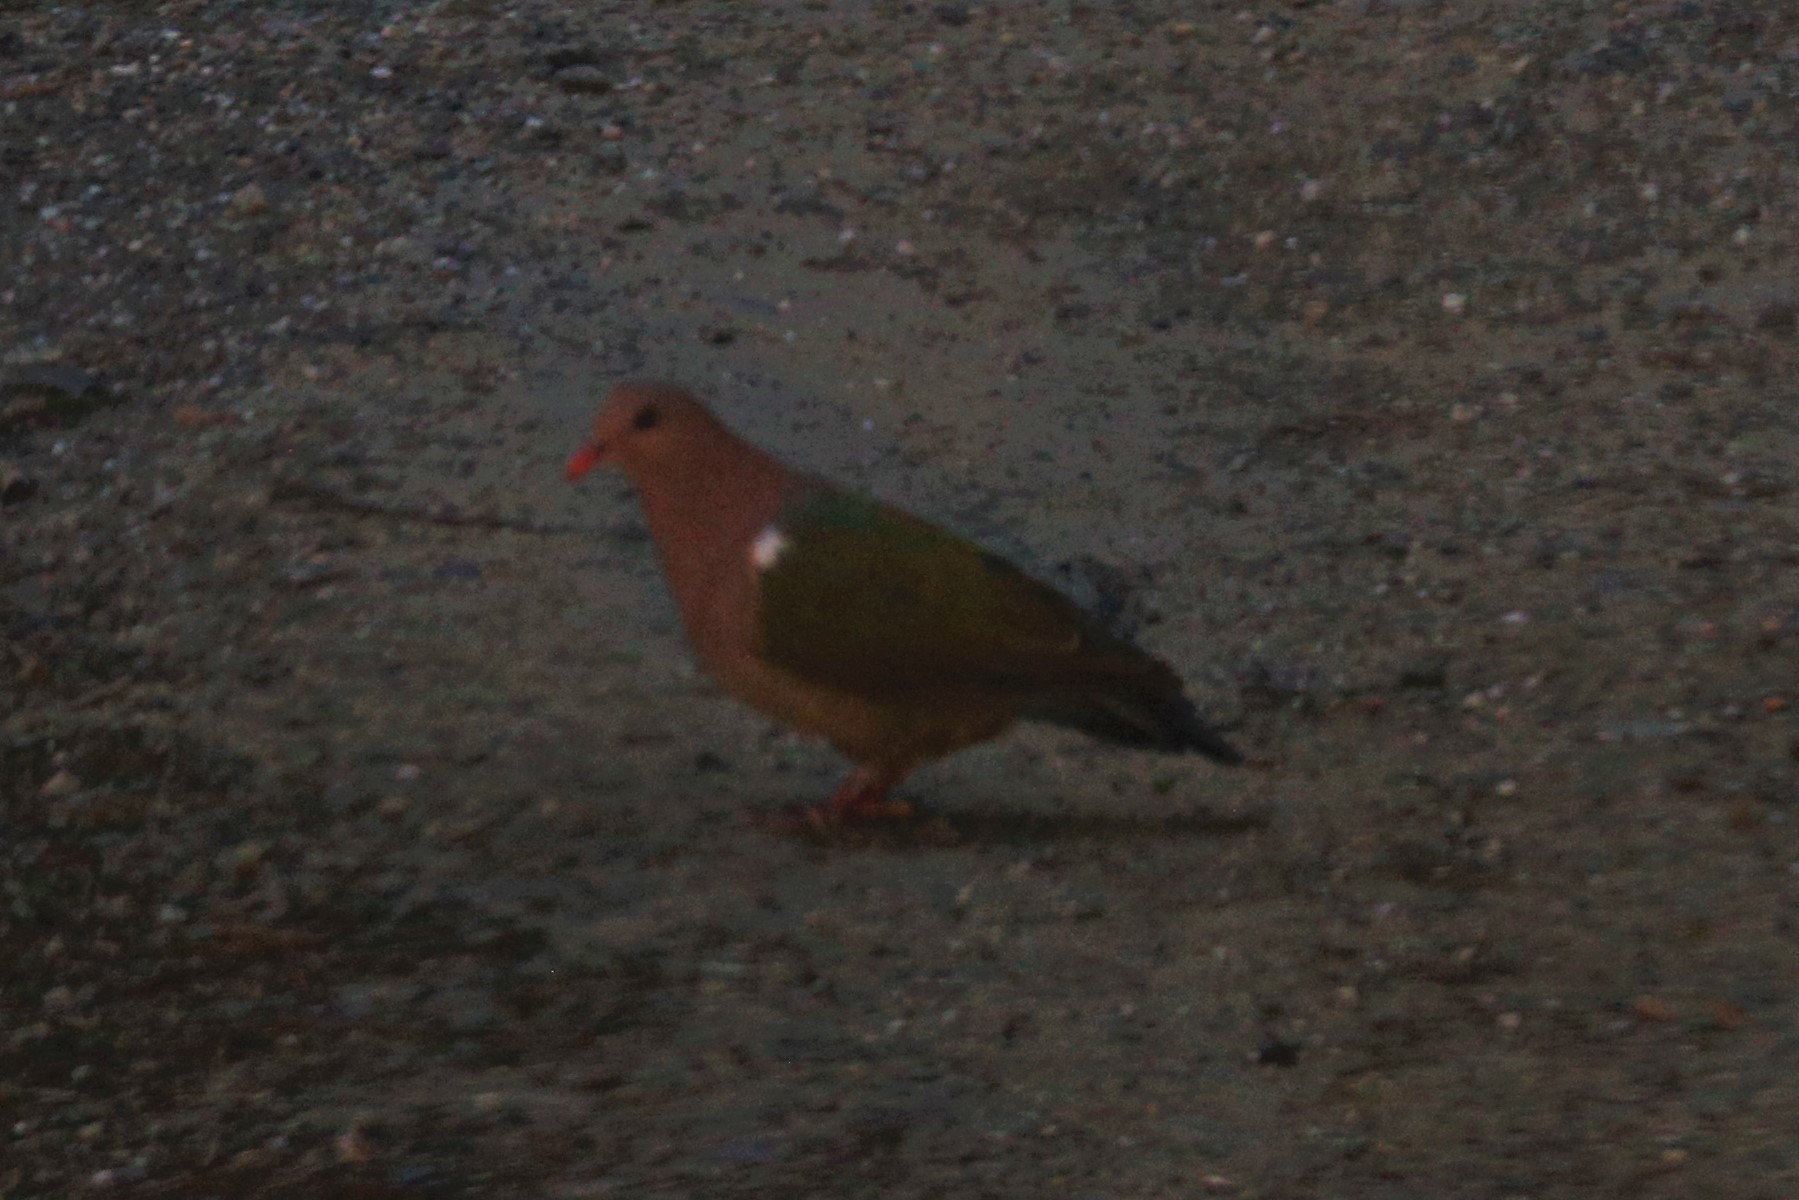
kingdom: Animalia
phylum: Chordata
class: Aves
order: Columbiformes
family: Columbidae
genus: Chalcophaps
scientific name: Chalcophaps longirostris
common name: Pacific emerald dove
